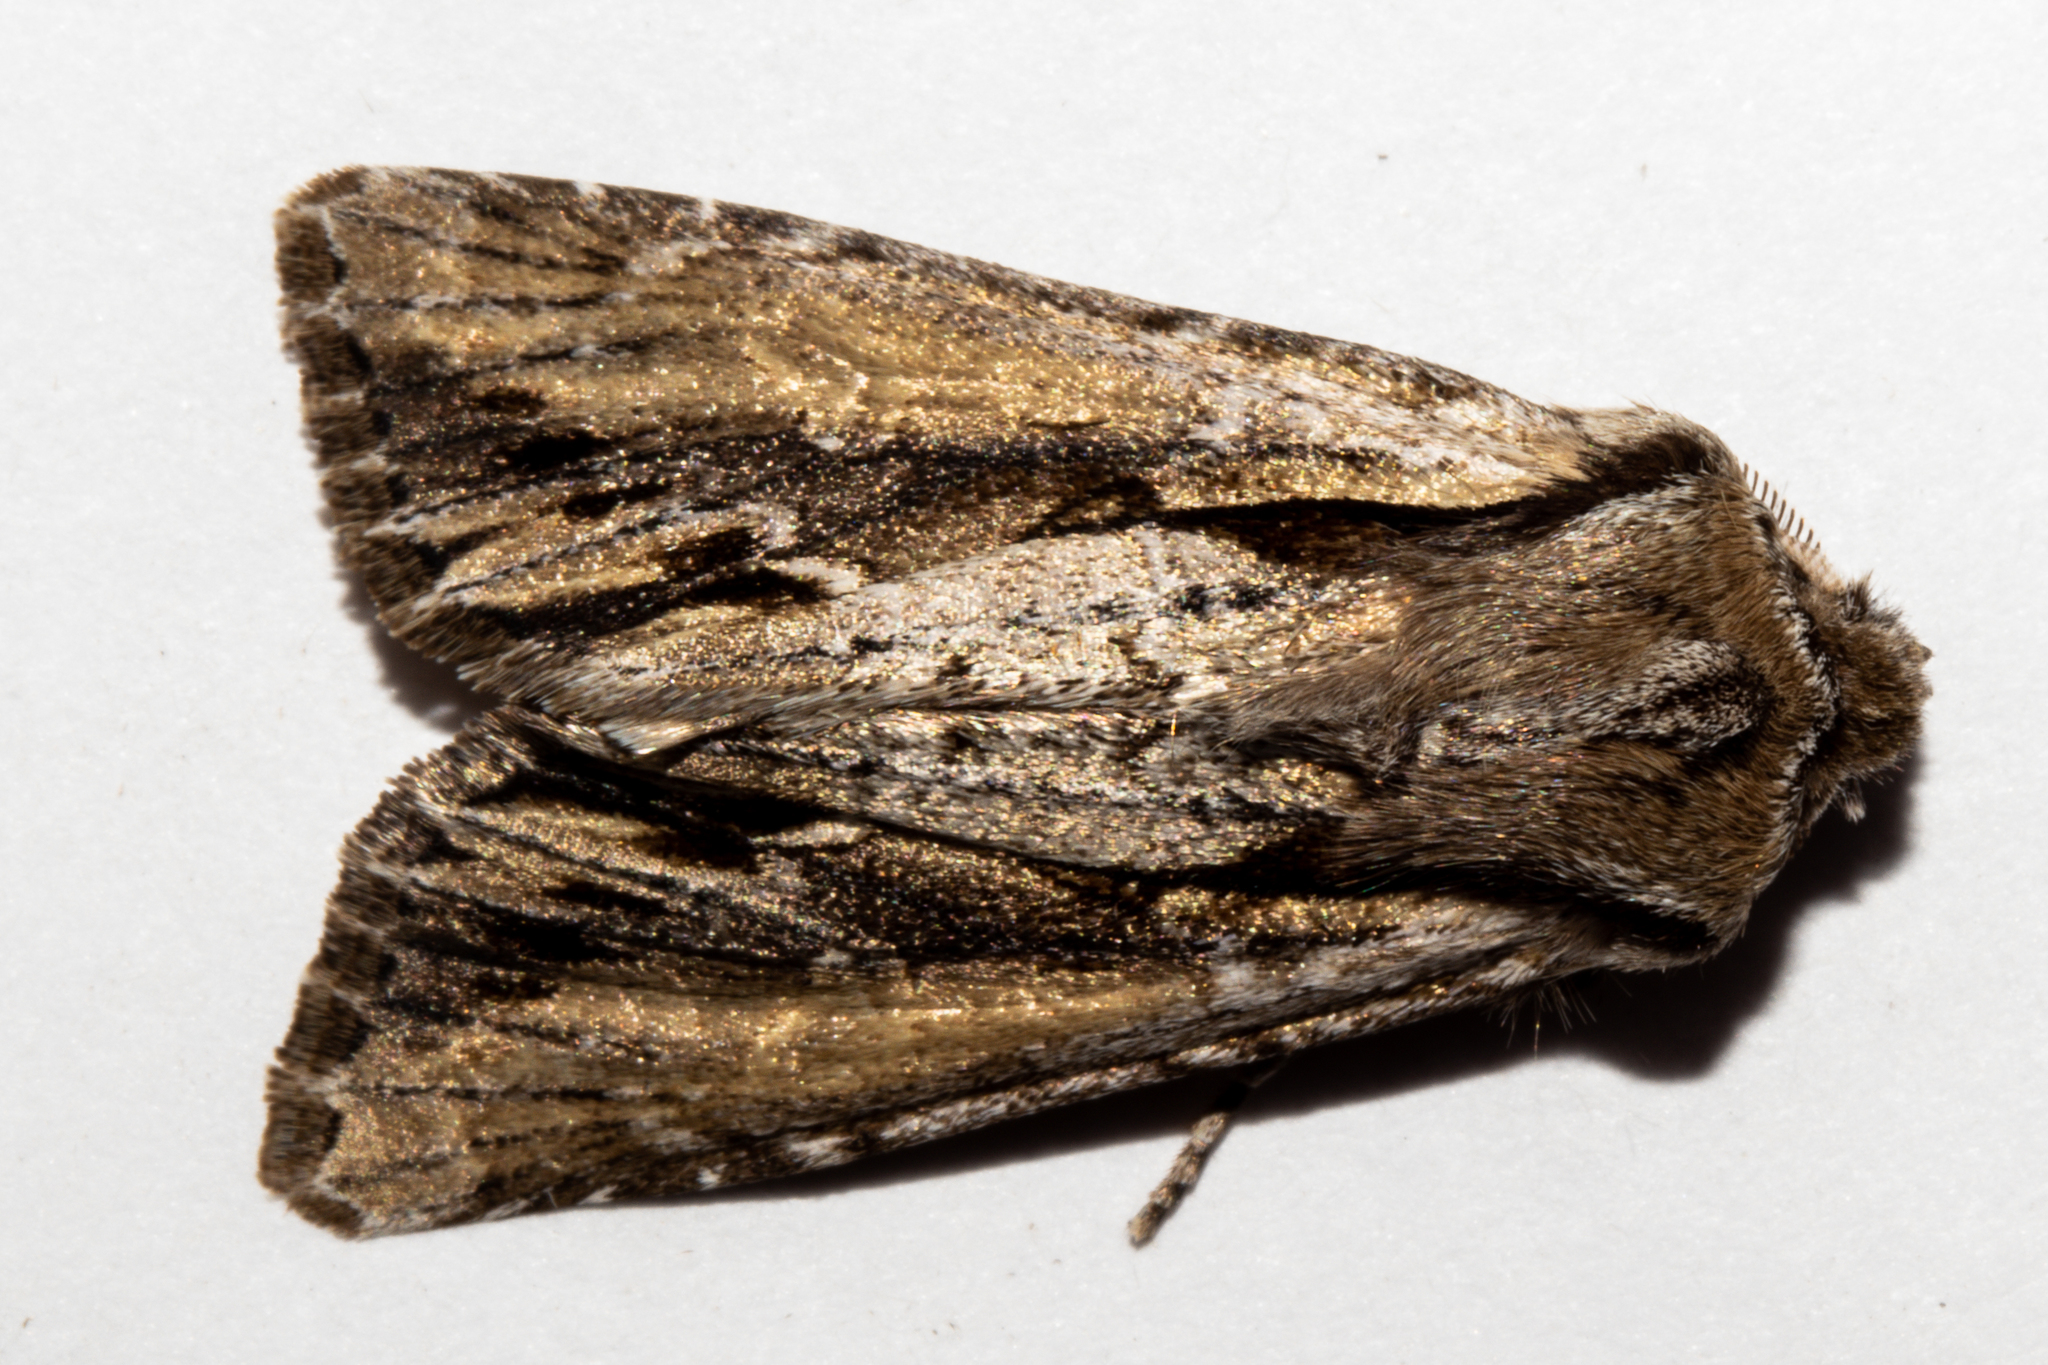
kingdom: Animalia
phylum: Arthropoda
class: Insecta
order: Lepidoptera
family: Noctuidae
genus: Ichneutica
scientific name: Ichneutica
